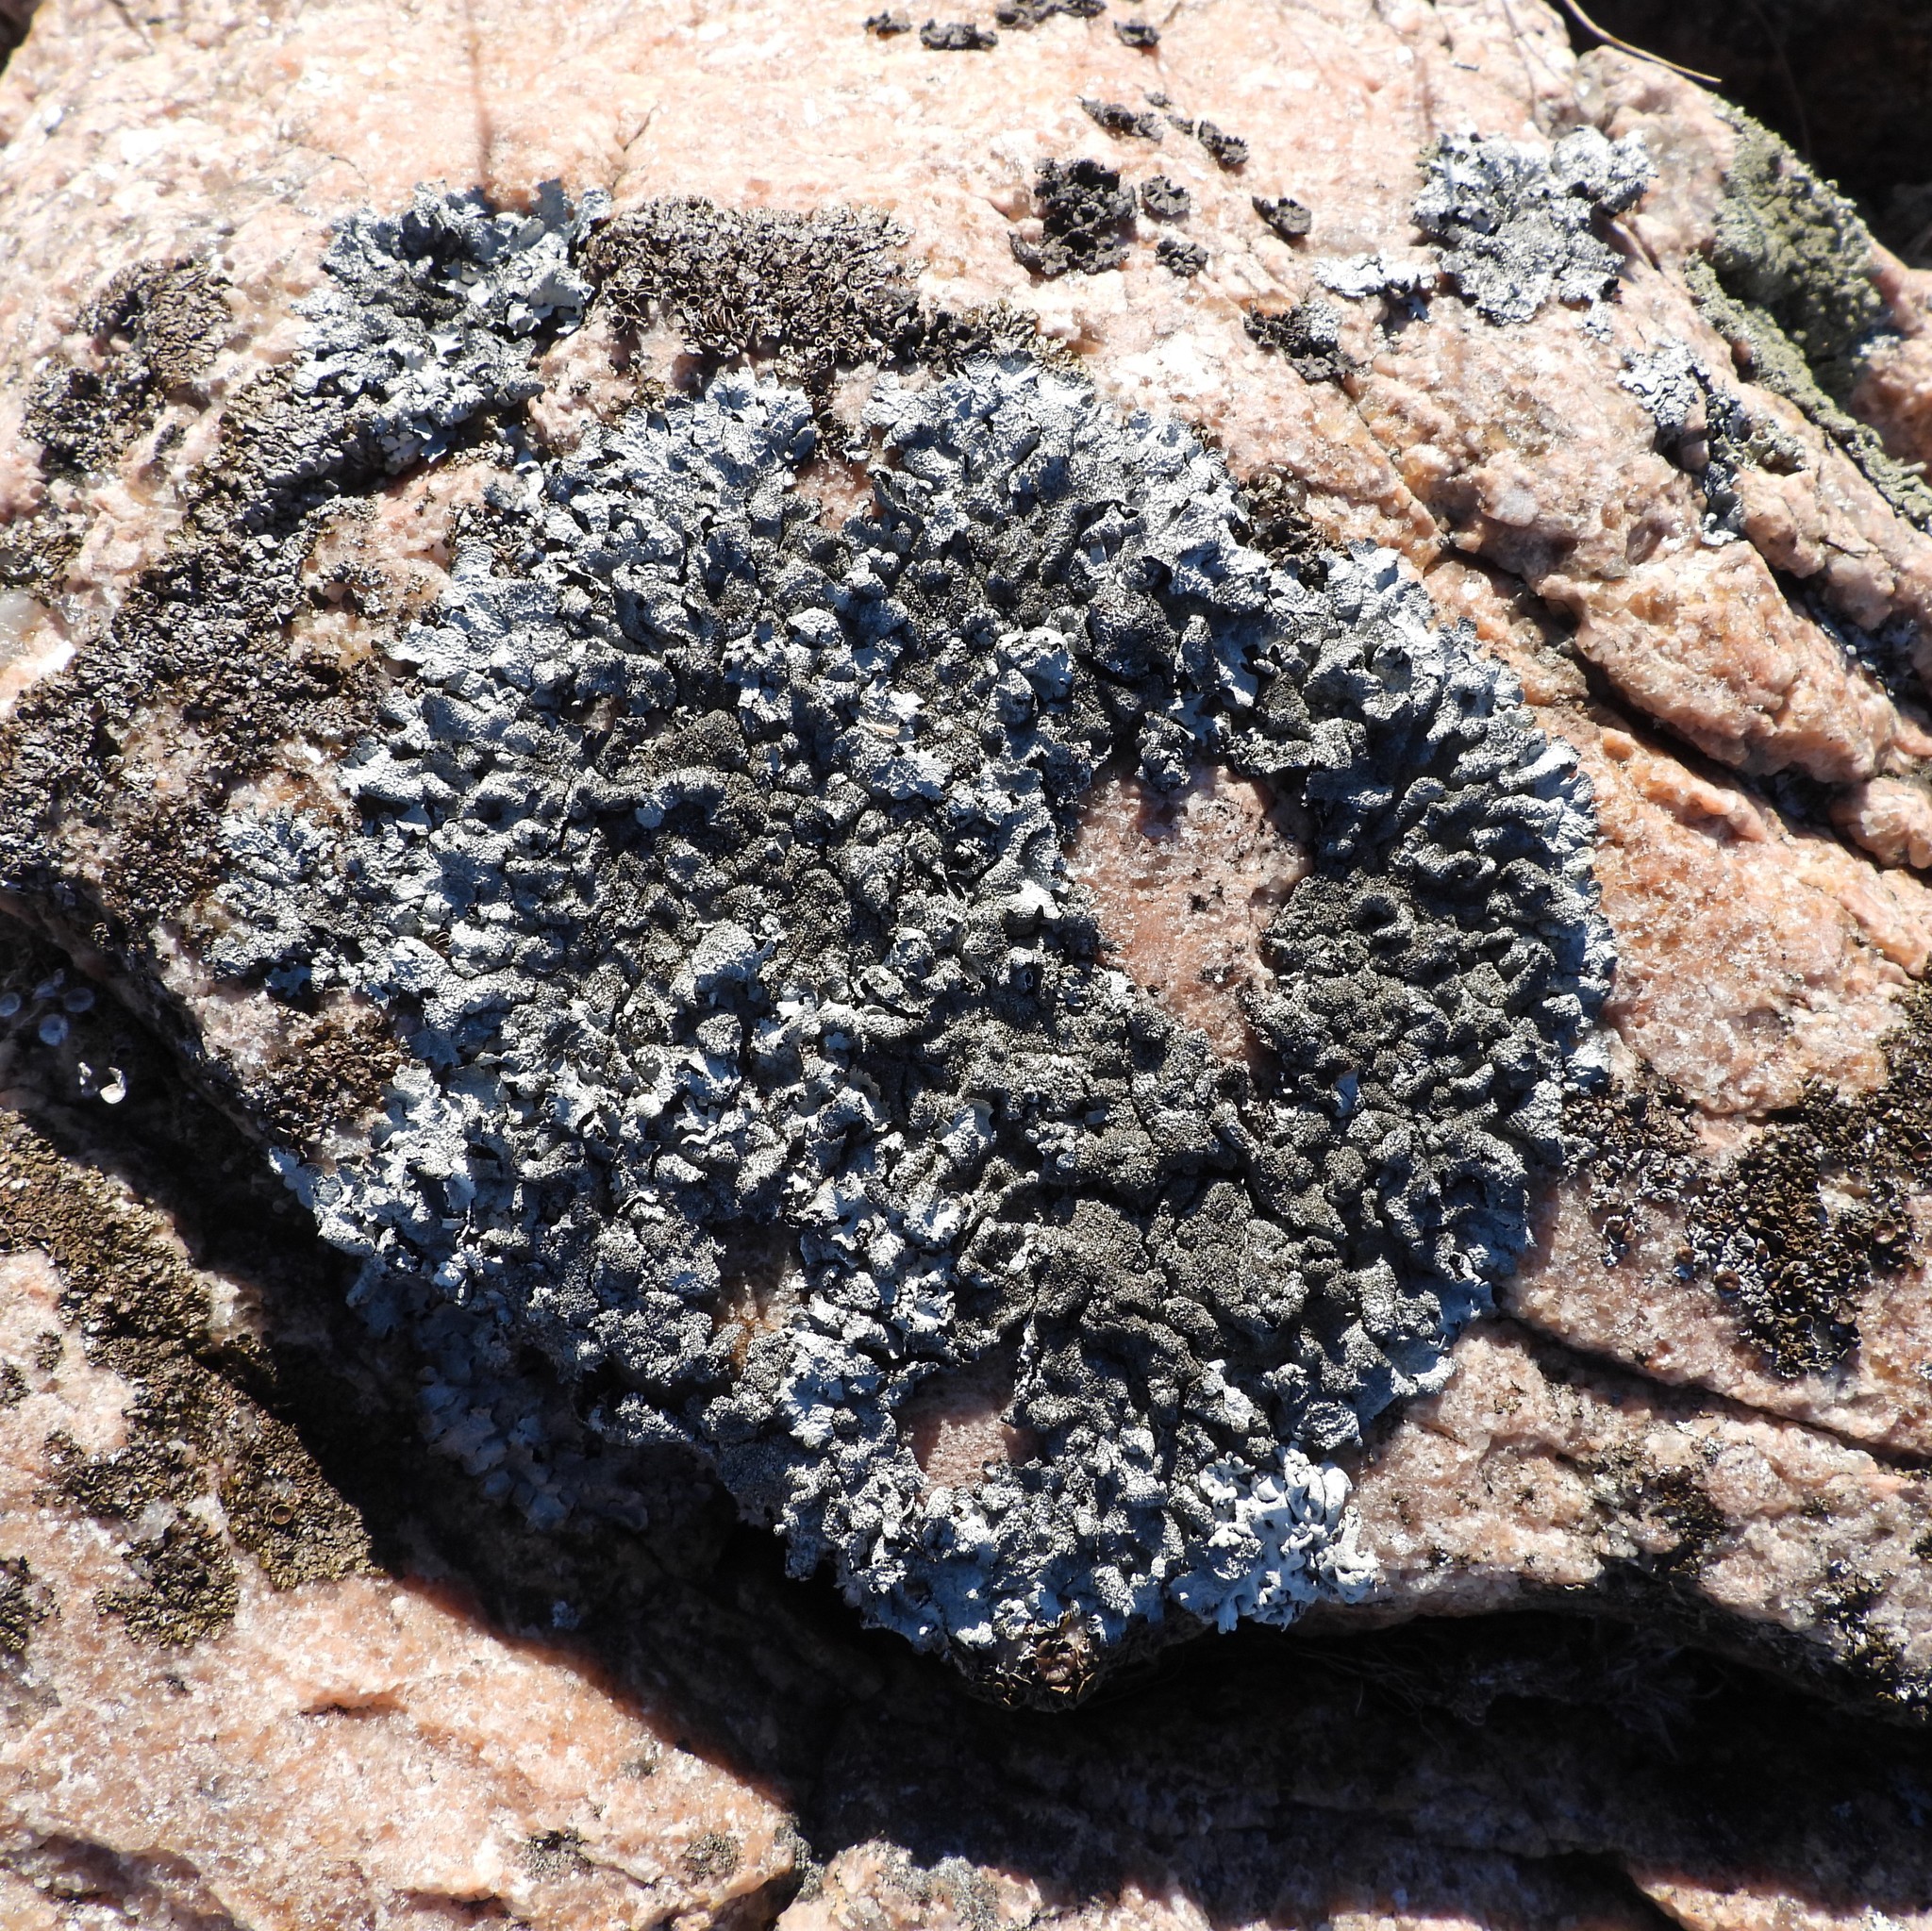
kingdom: Fungi
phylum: Ascomycota
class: Lecanoromycetes
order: Lecanorales
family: Parmeliaceae
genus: Parmelia
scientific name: Parmelia saxatilis
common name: Salted shield lichen
